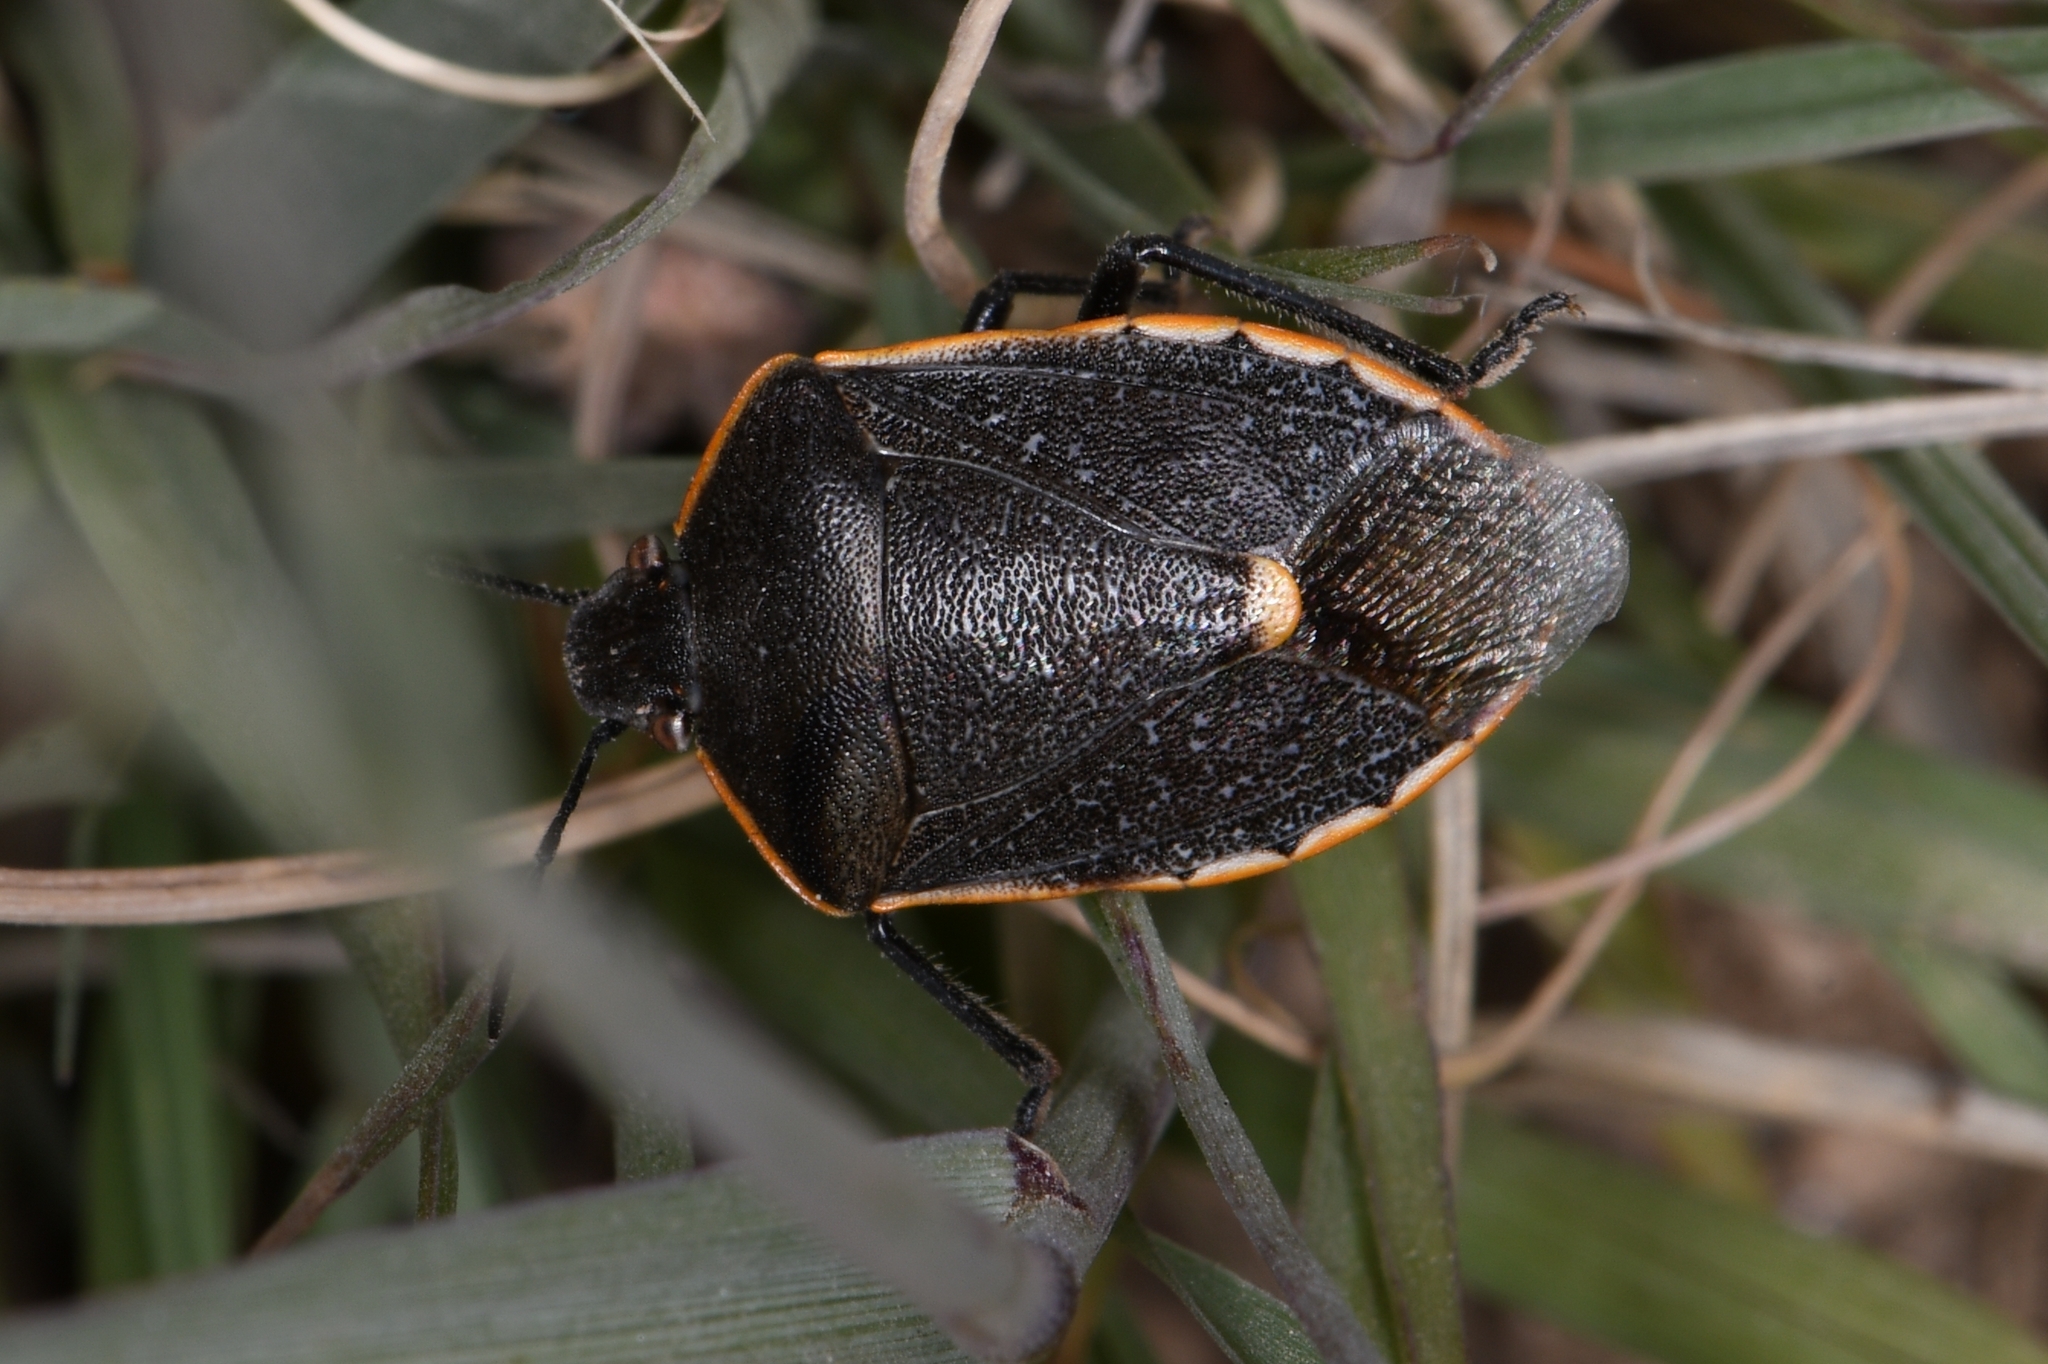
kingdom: Animalia
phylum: Arthropoda
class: Insecta
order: Hemiptera
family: Pentatomidae
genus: Chlorochroa
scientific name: Chlorochroa ligata
